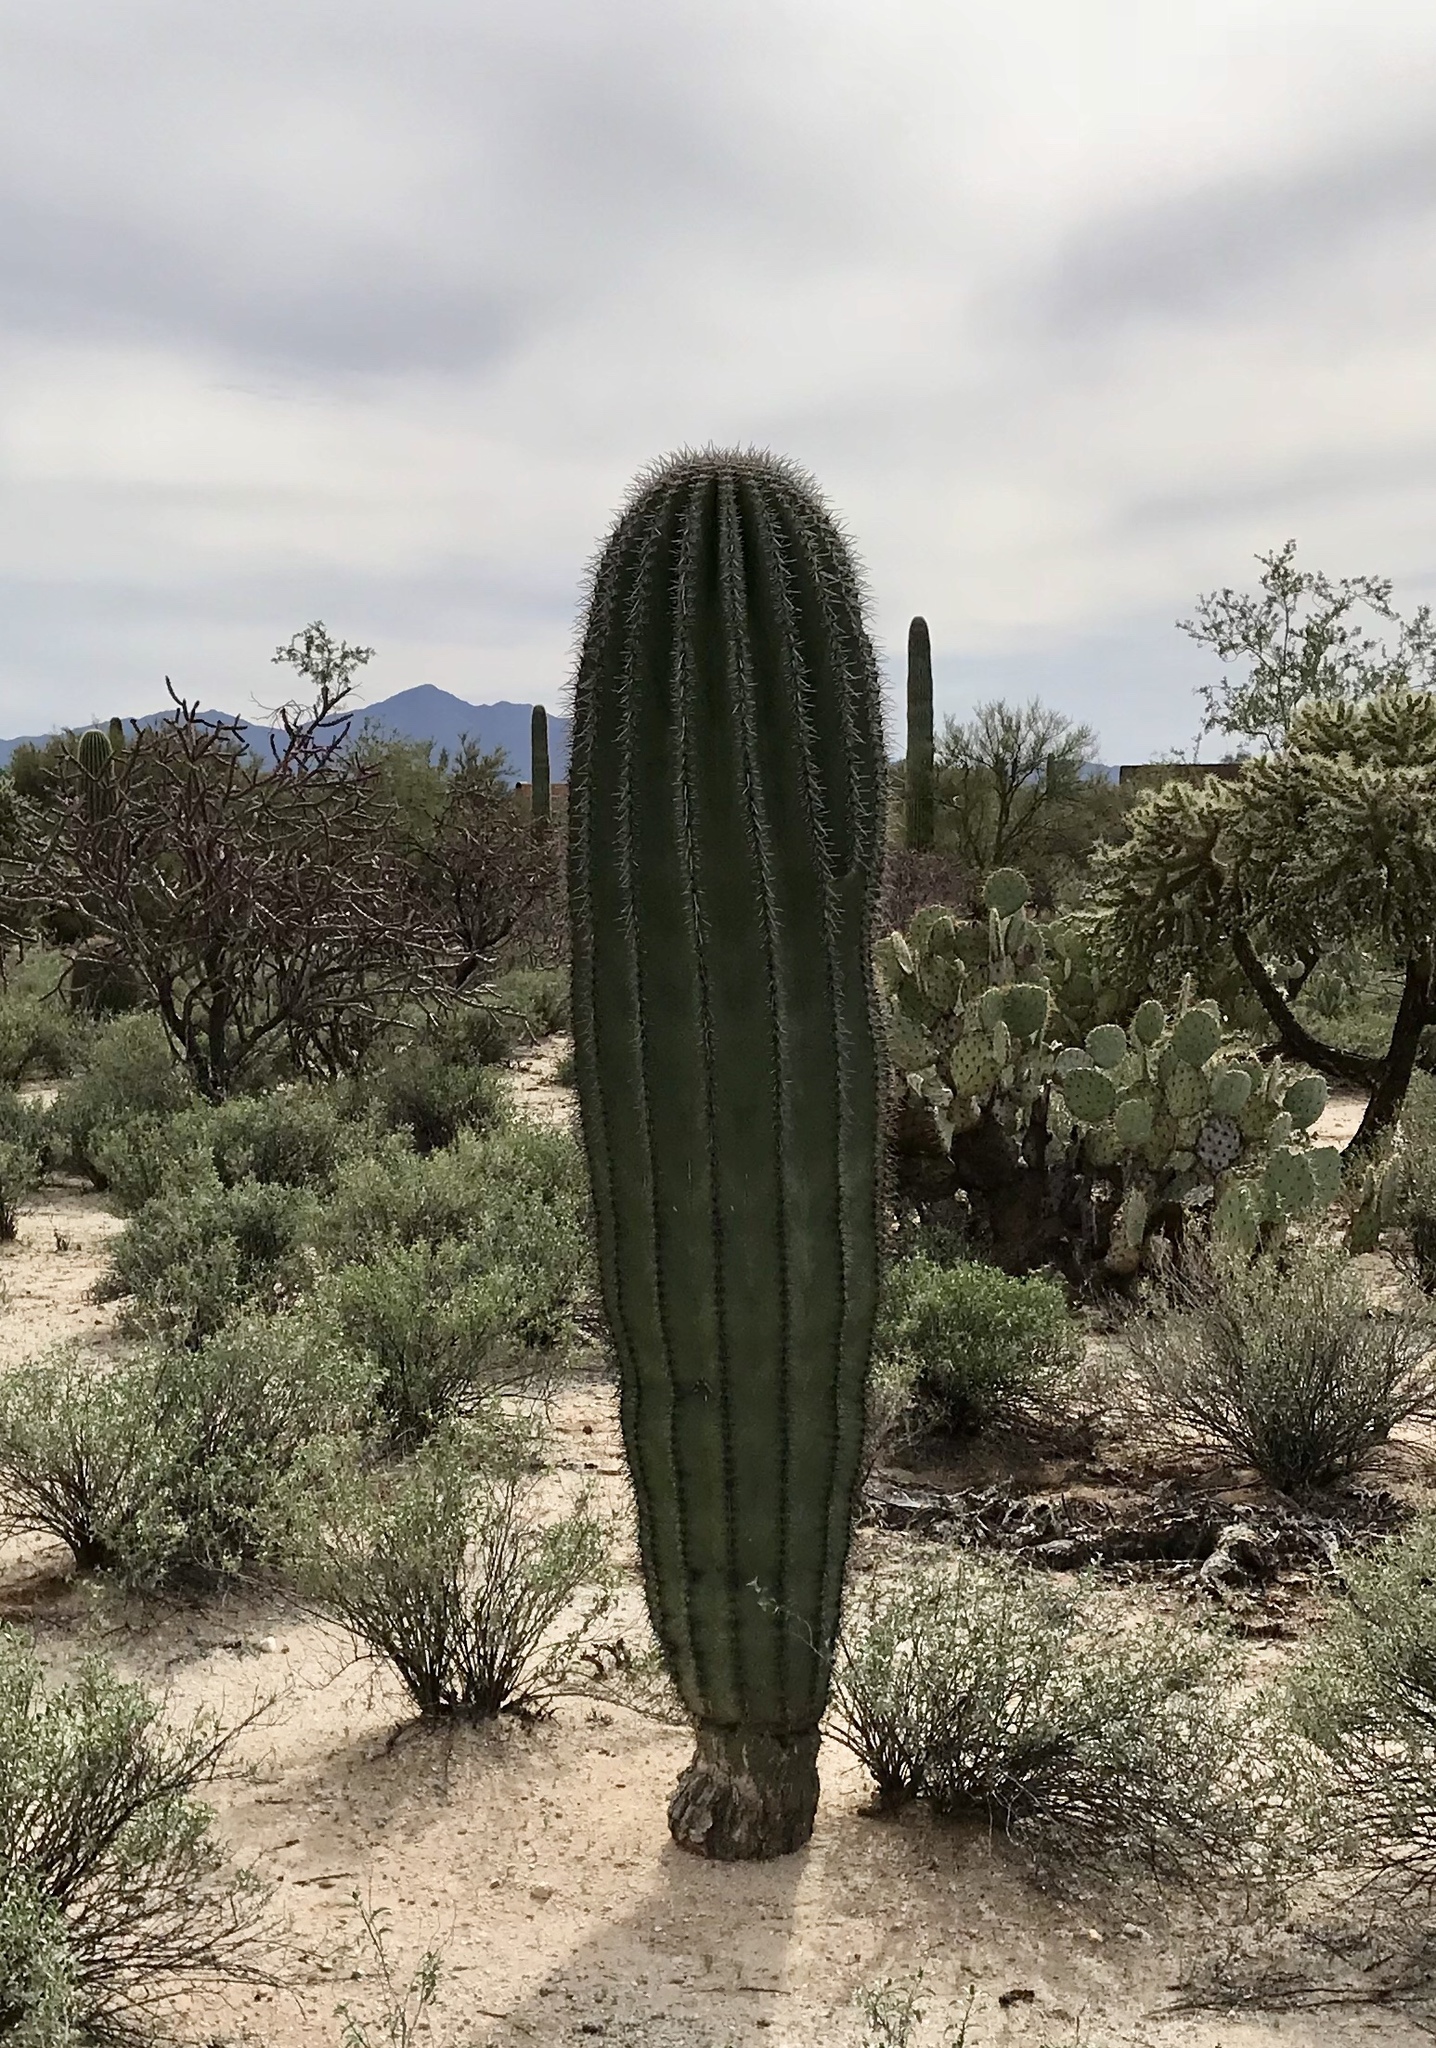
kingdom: Plantae
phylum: Tracheophyta
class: Magnoliopsida
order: Caryophyllales
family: Cactaceae
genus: Carnegiea
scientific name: Carnegiea gigantea
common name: Saguaro
